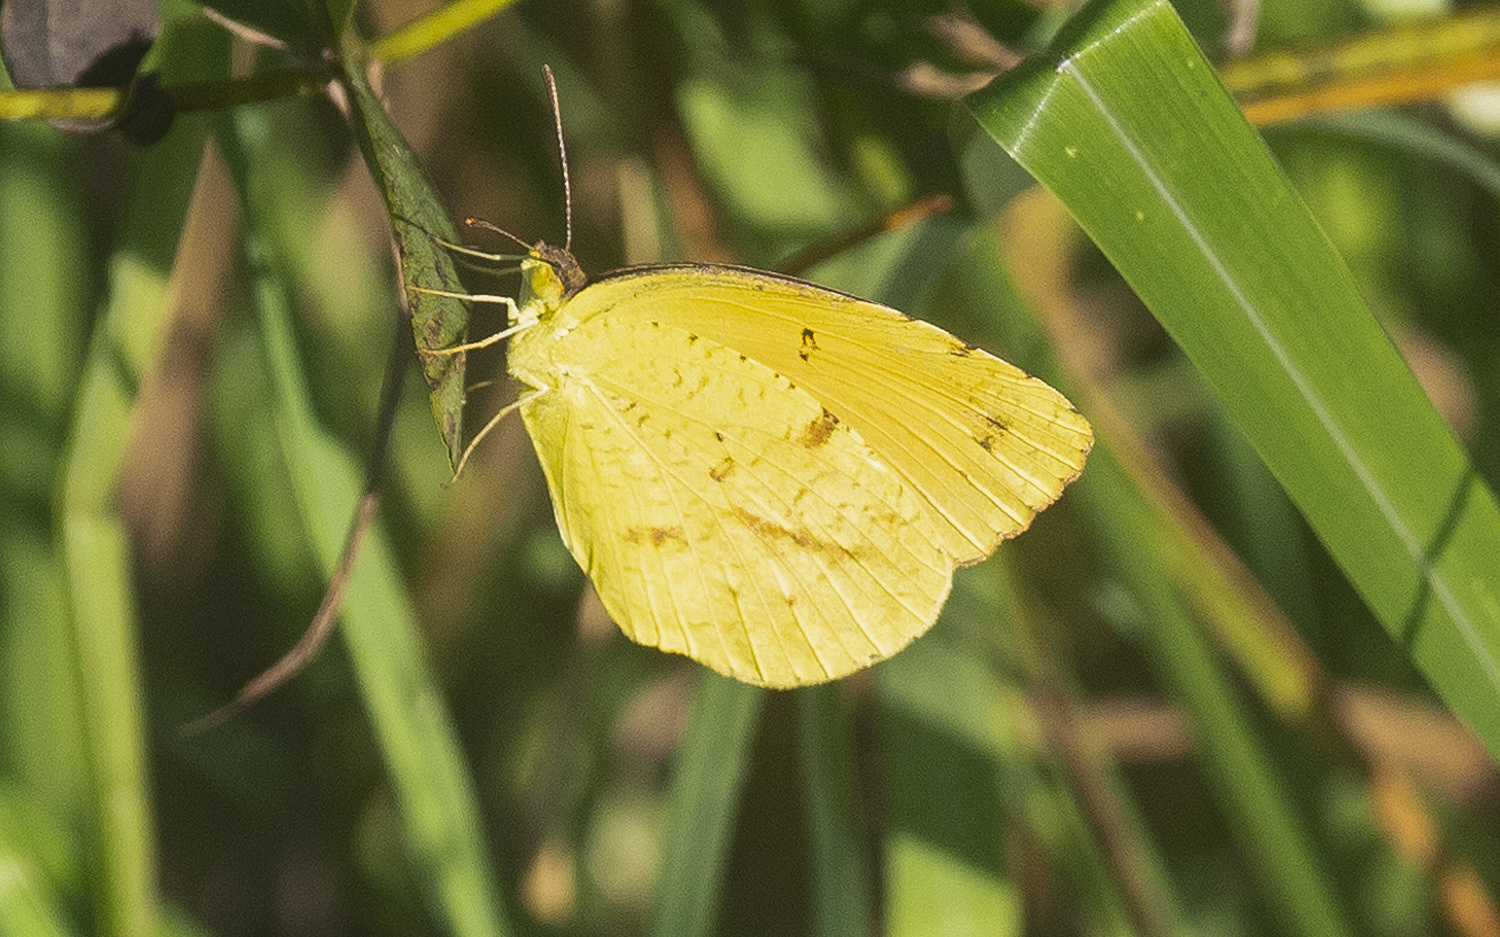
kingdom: Animalia
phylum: Arthropoda
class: Insecta
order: Lepidoptera
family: Pieridae
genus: Abaeis
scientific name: Abaeis nicippe
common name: Sleepy orange
